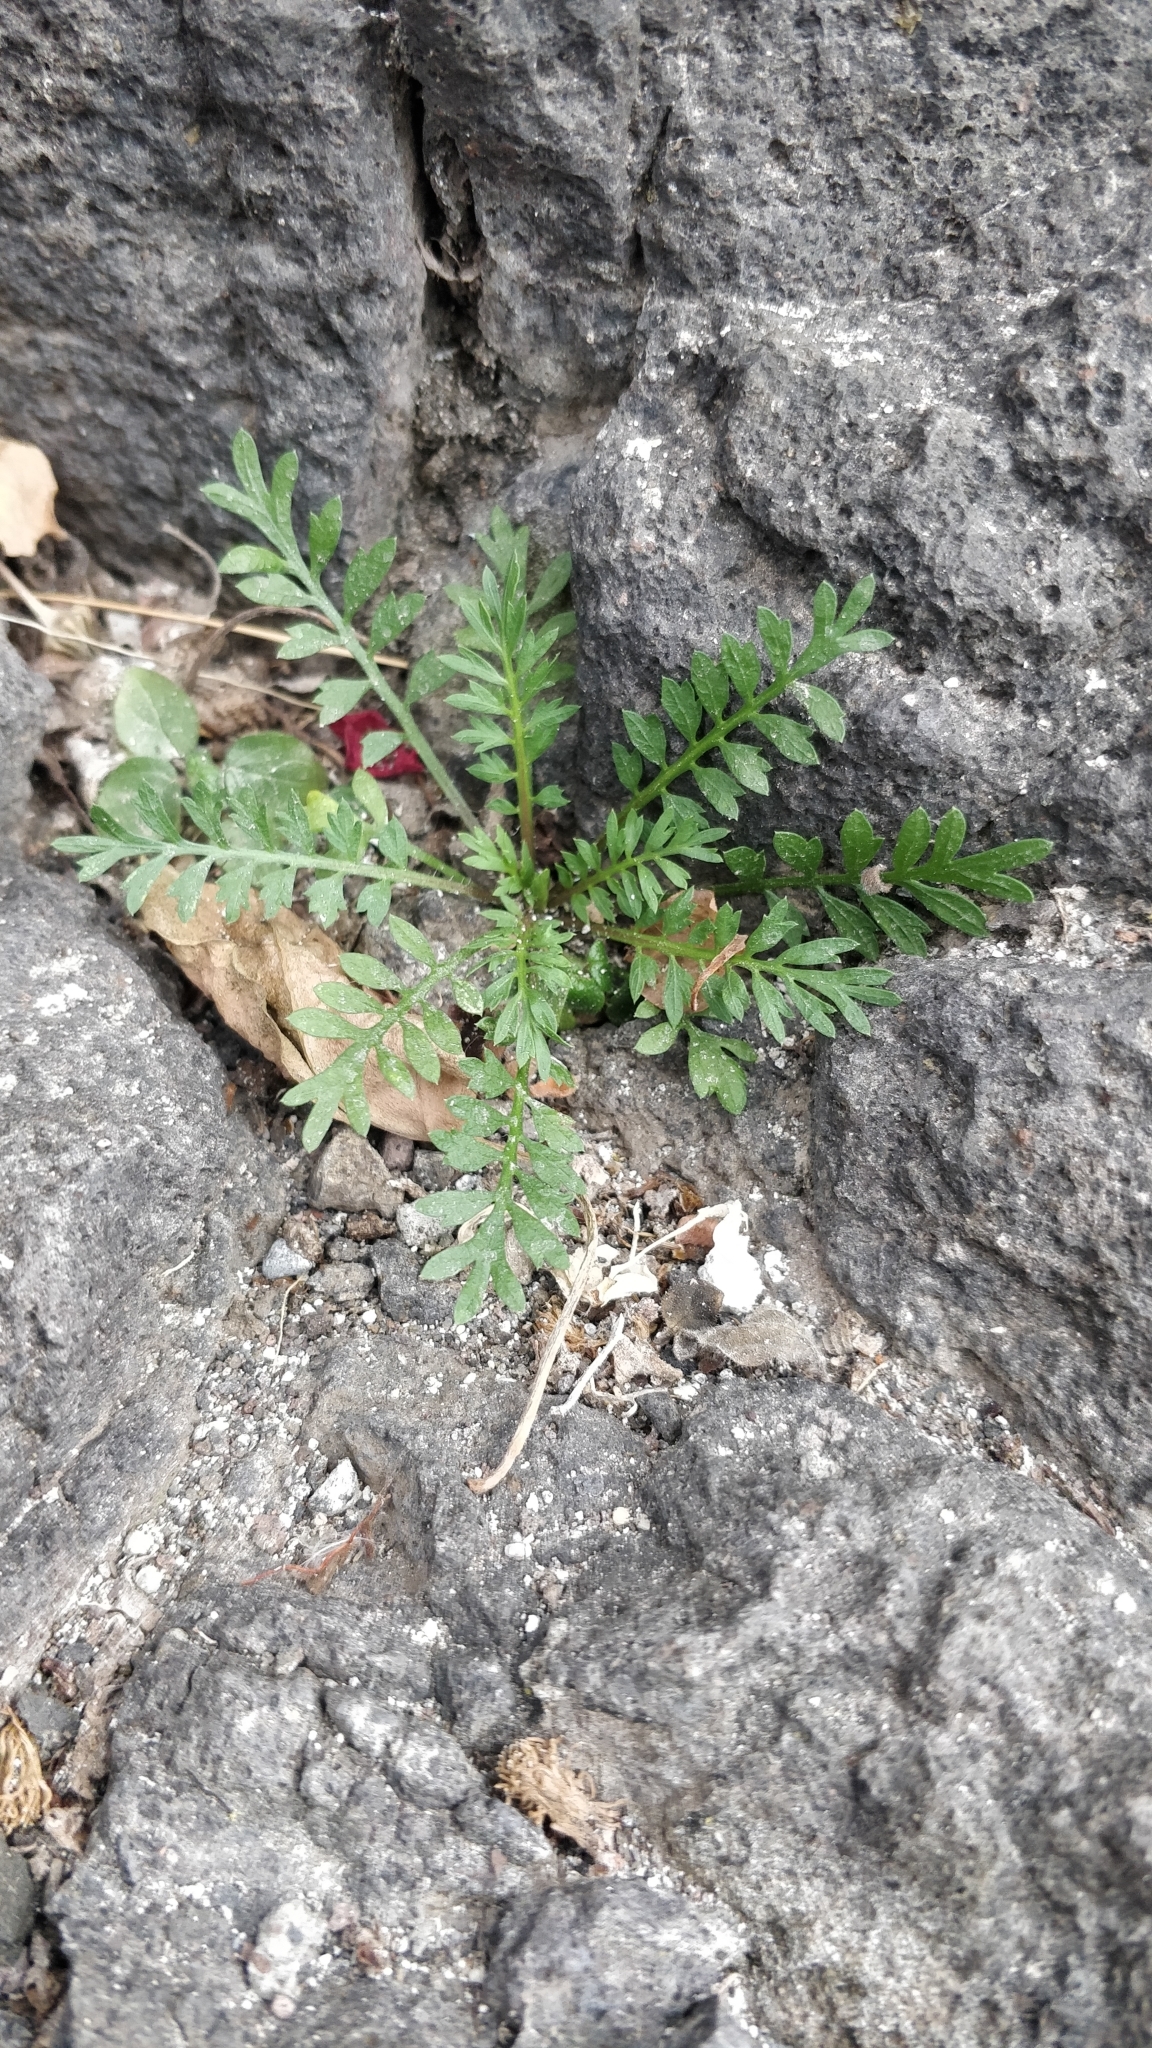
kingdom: Plantae
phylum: Tracheophyta
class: Magnoliopsida
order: Brassicales
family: Brassicaceae
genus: Lepidium
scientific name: Lepidium didymum
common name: Lesser swinecress
